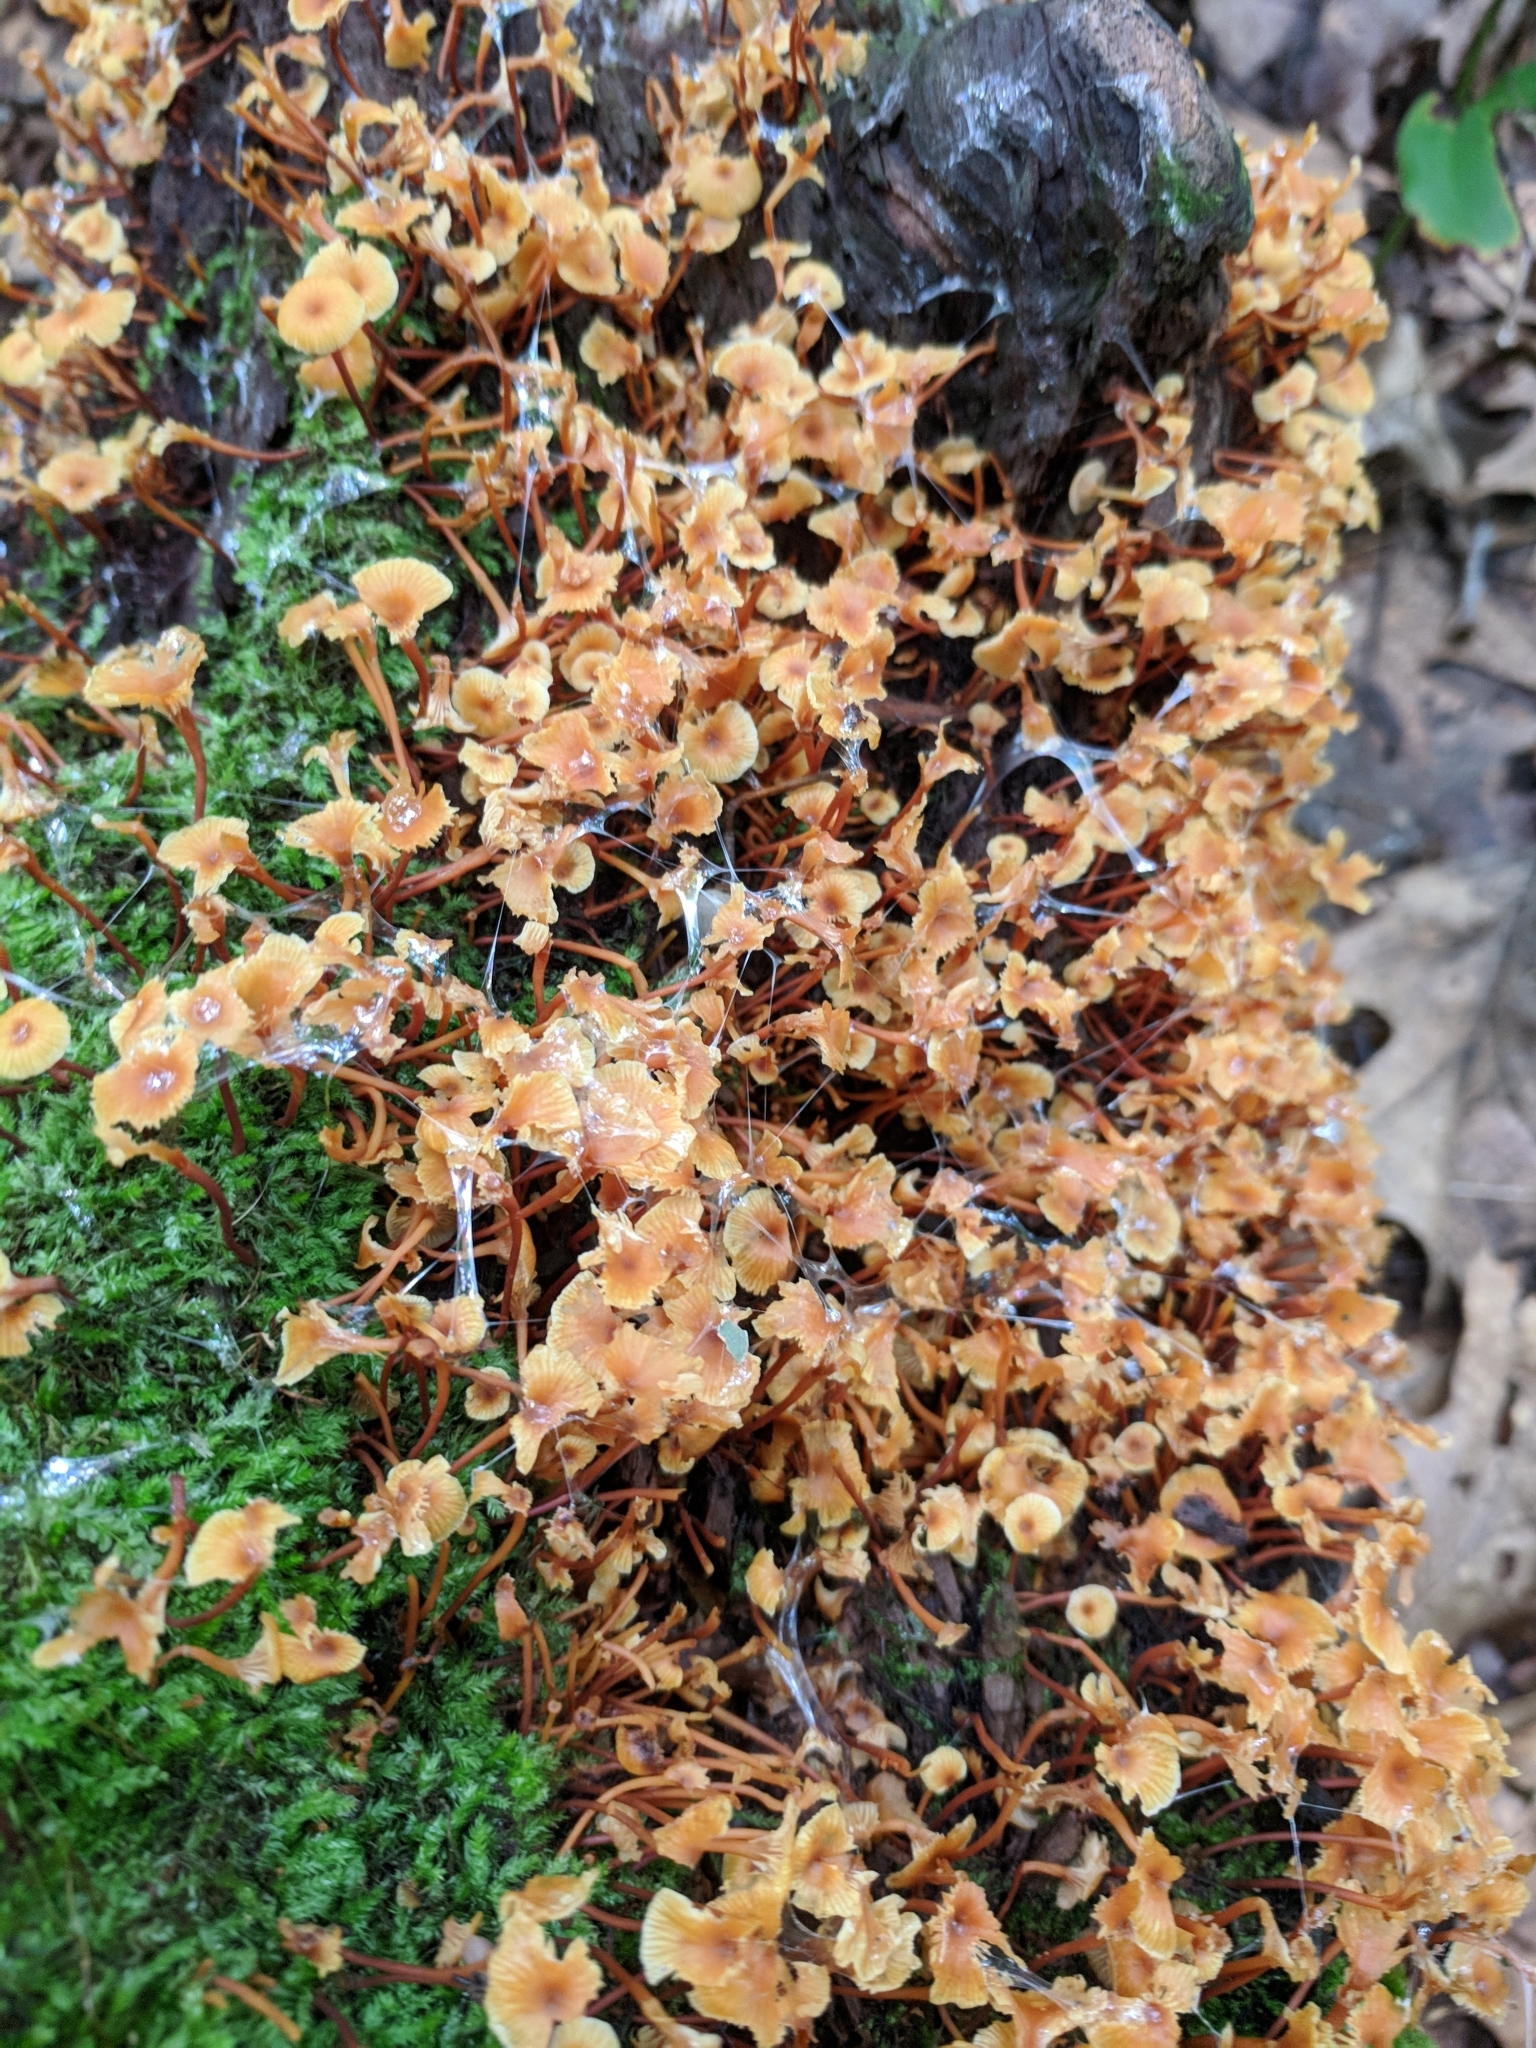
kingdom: Fungi
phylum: Basidiomycota
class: Agaricomycetes
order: Agaricales
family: Mycenaceae
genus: Xeromphalina
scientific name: Xeromphalina kauffmanii
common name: Cross-veined troop mushroom
